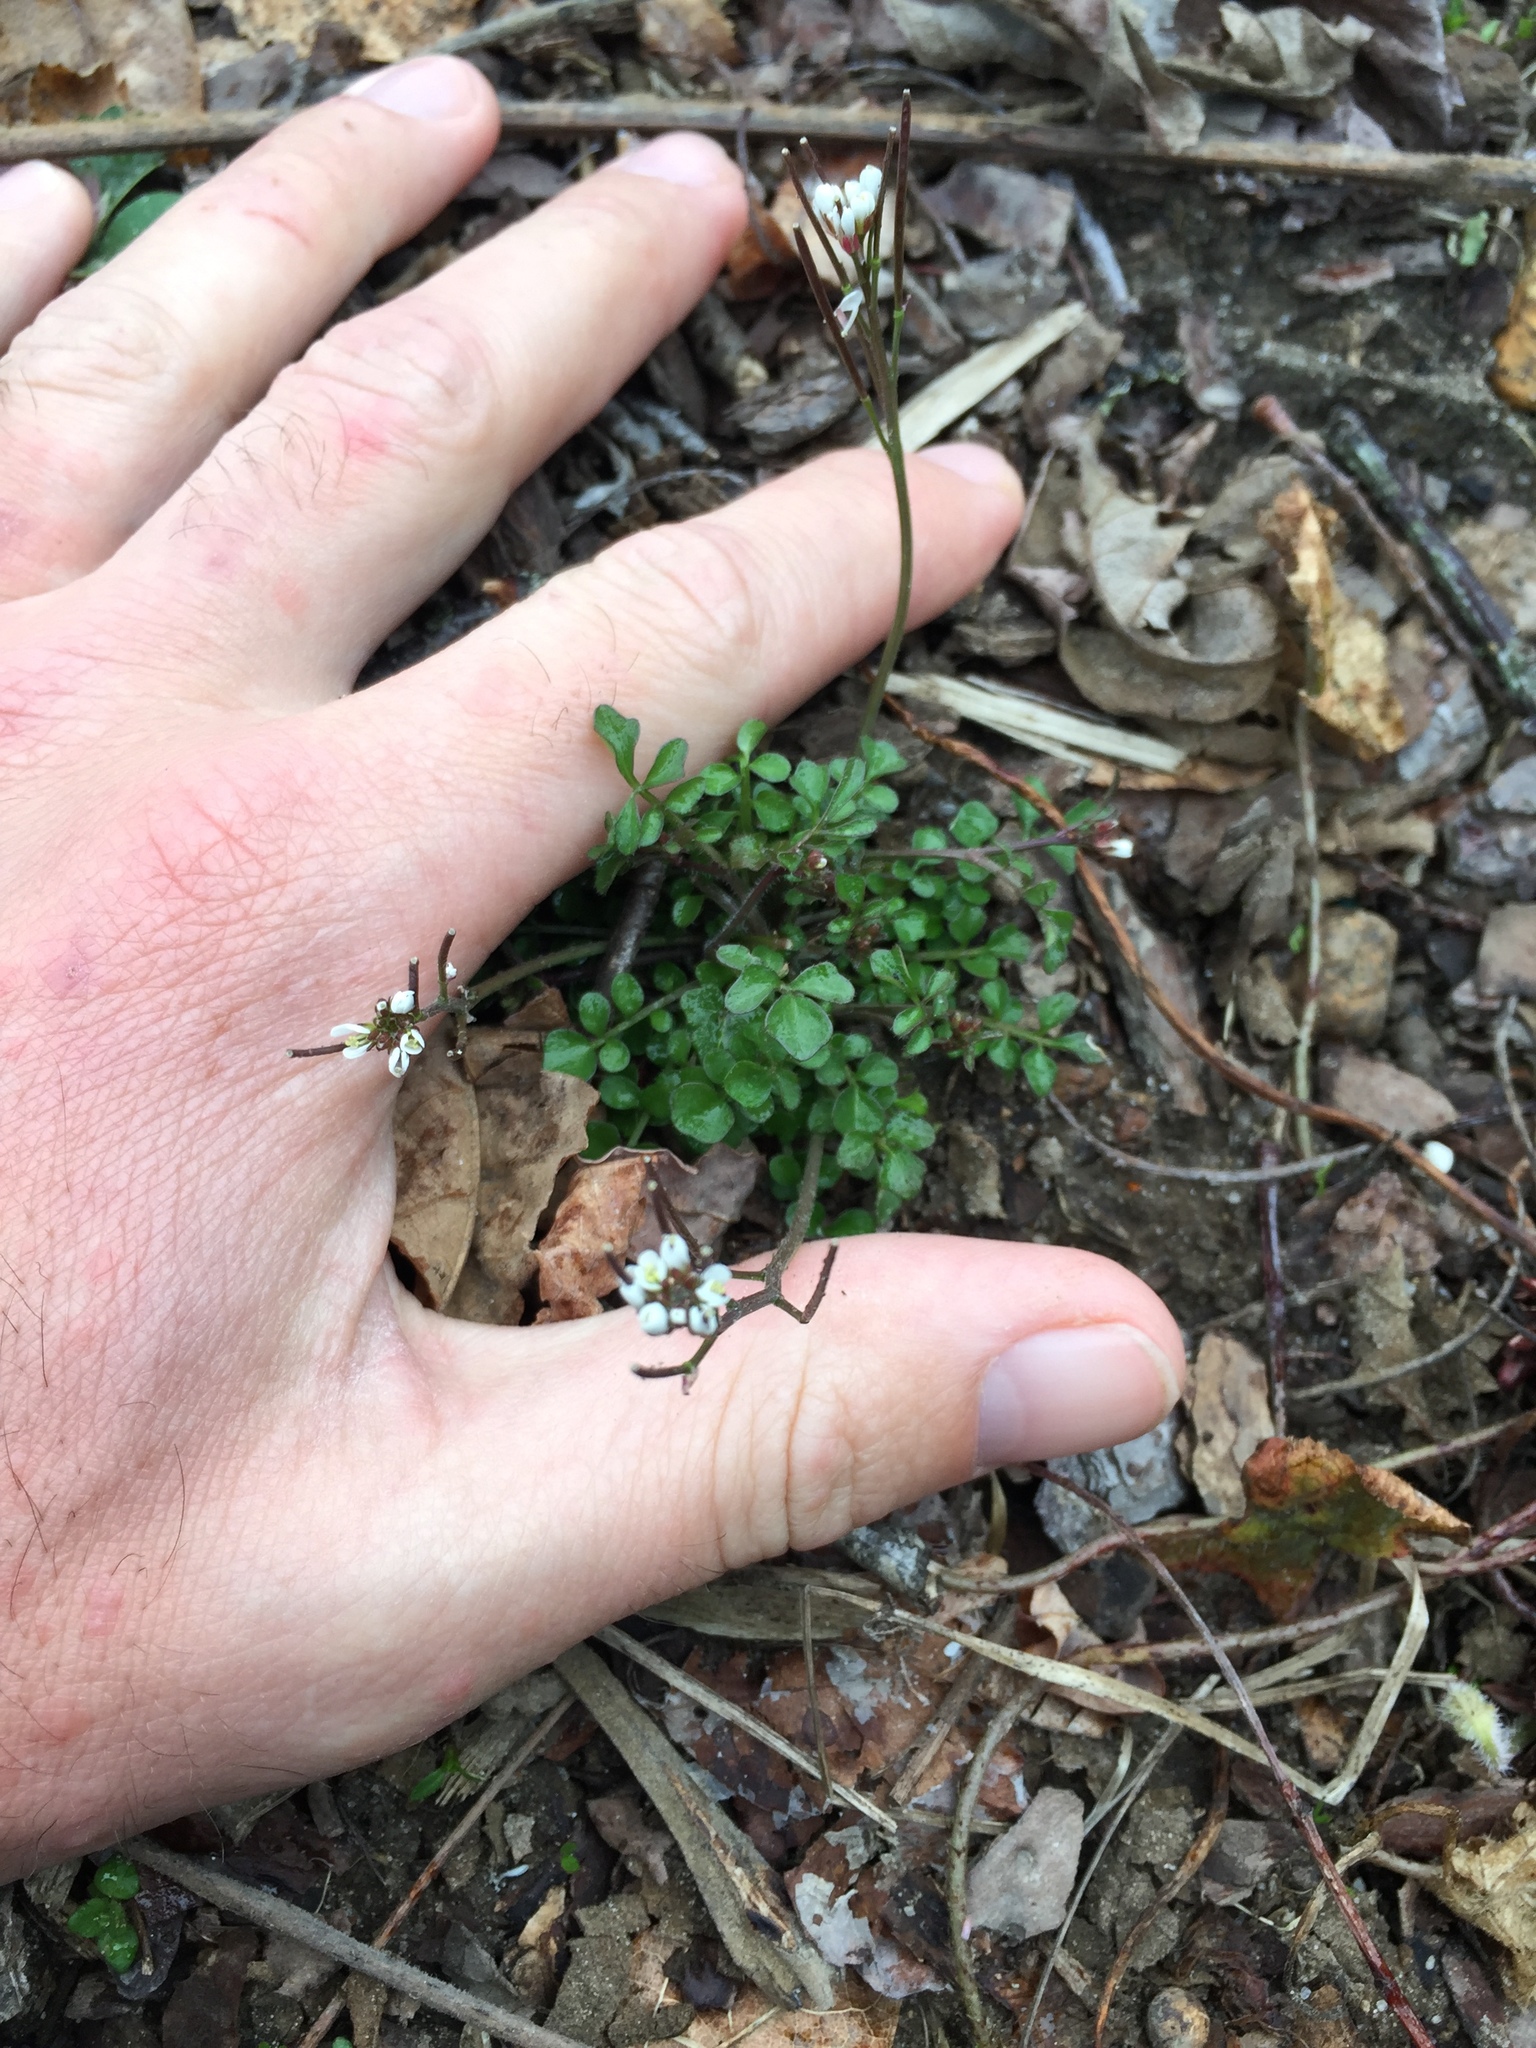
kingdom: Plantae
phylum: Tracheophyta
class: Magnoliopsida
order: Brassicales
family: Brassicaceae
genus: Cardamine
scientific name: Cardamine hirsuta
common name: Hairy bittercress
